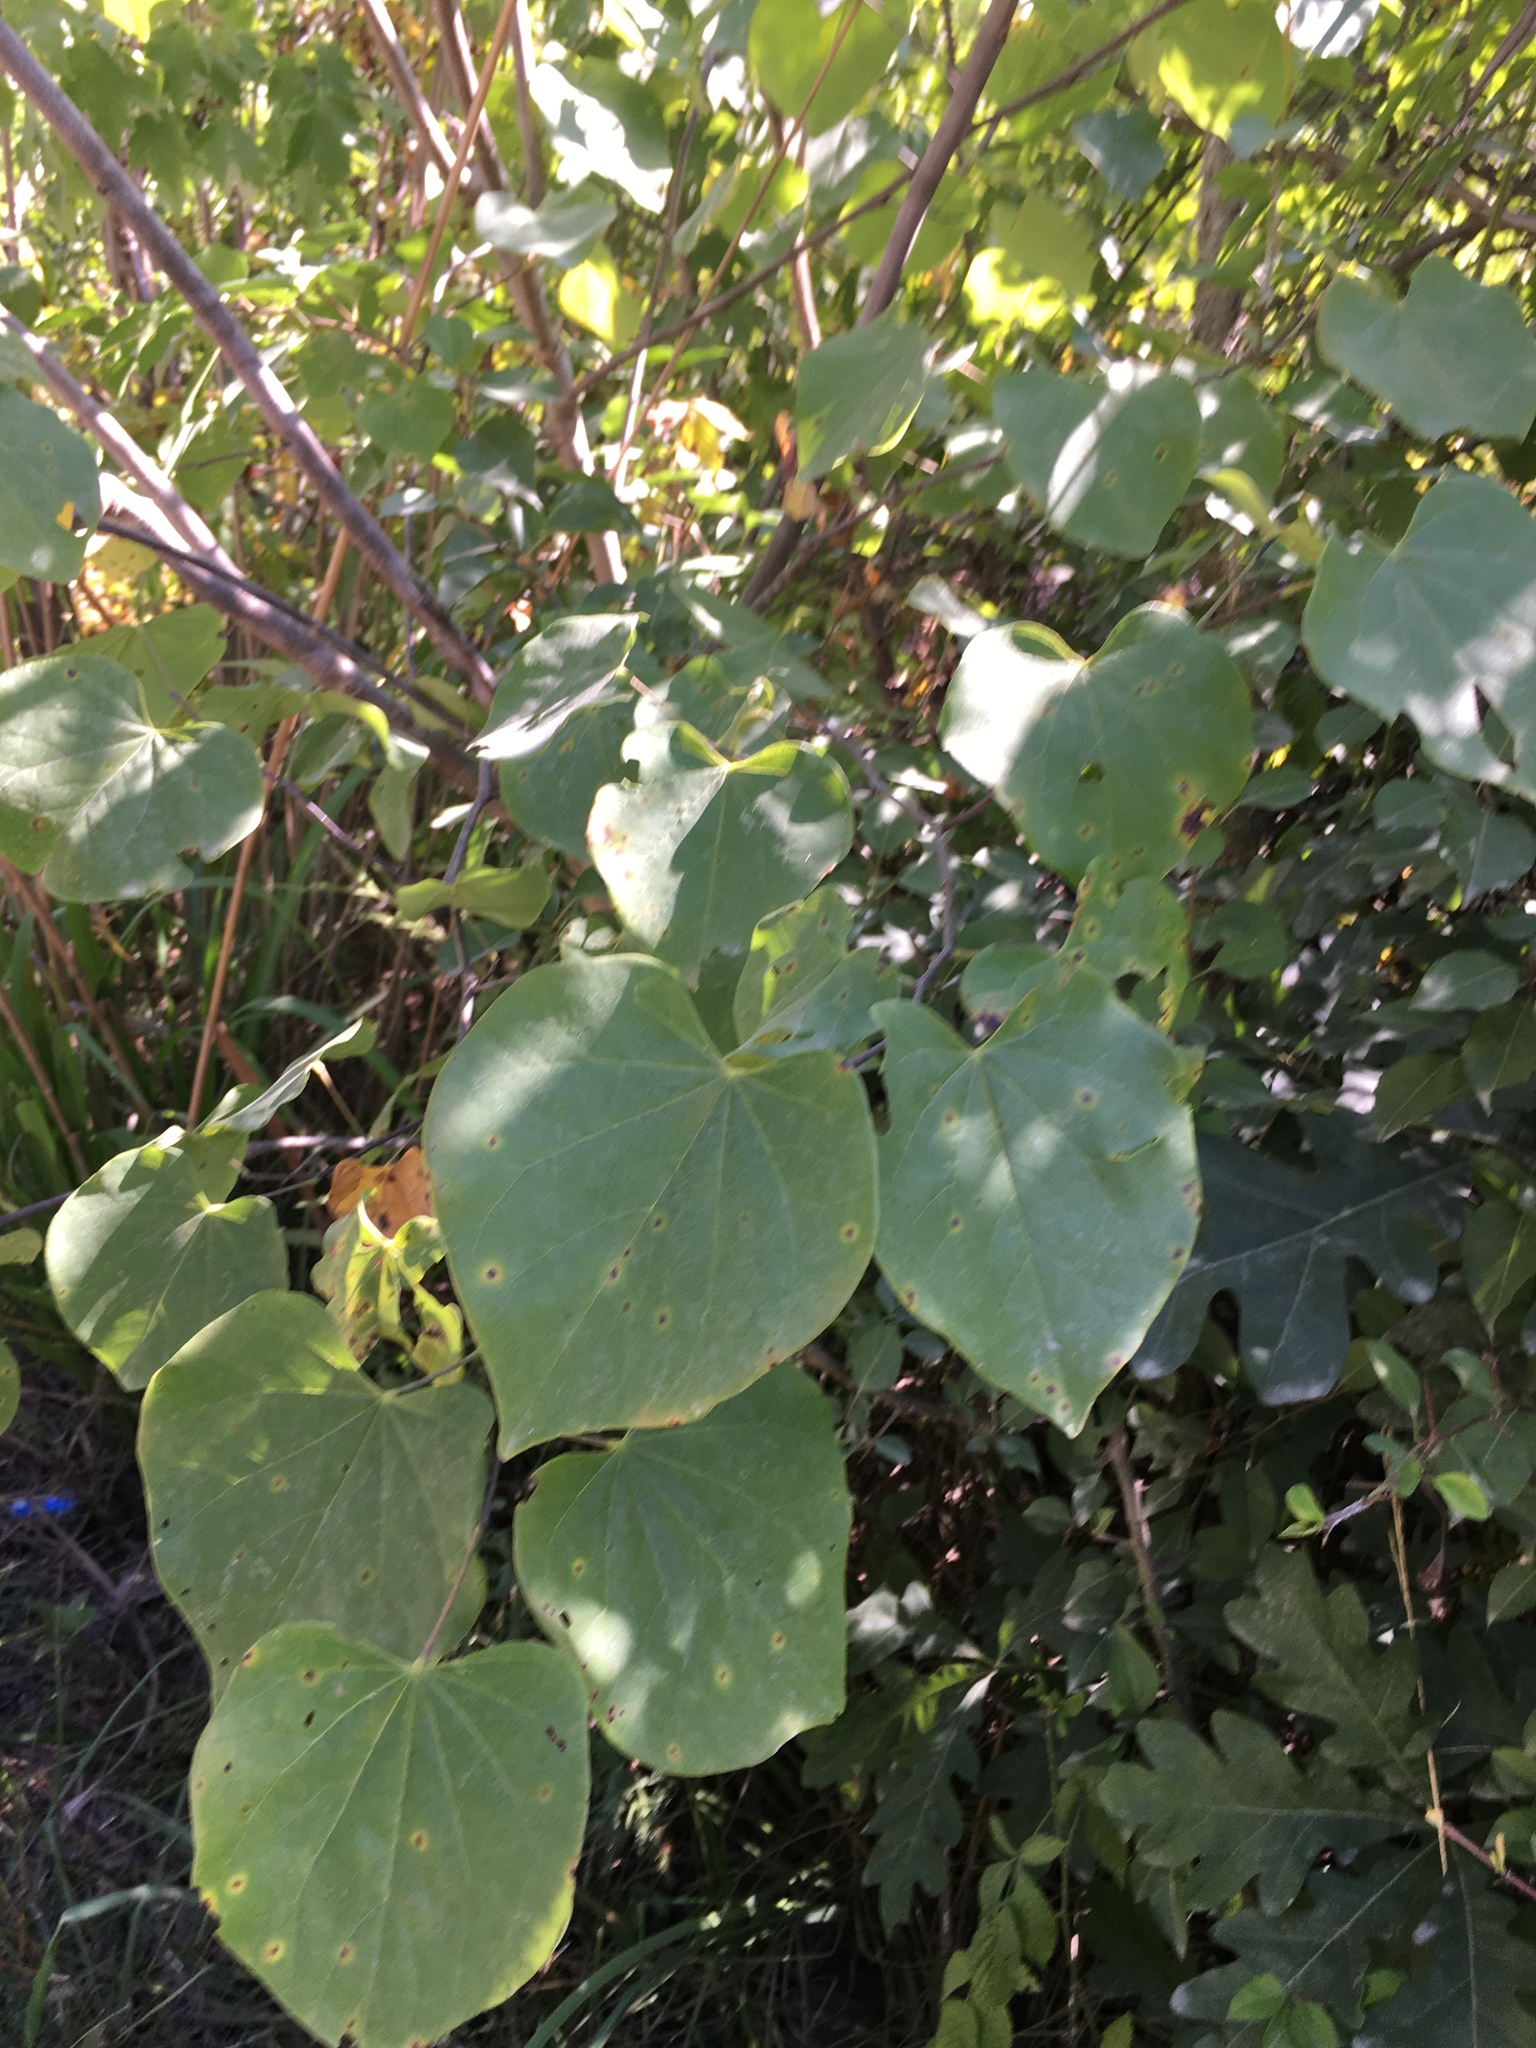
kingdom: Plantae
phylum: Tracheophyta
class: Magnoliopsida
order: Fabales
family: Fabaceae
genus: Cercis
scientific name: Cercis canadensis
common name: Eastern redbud
